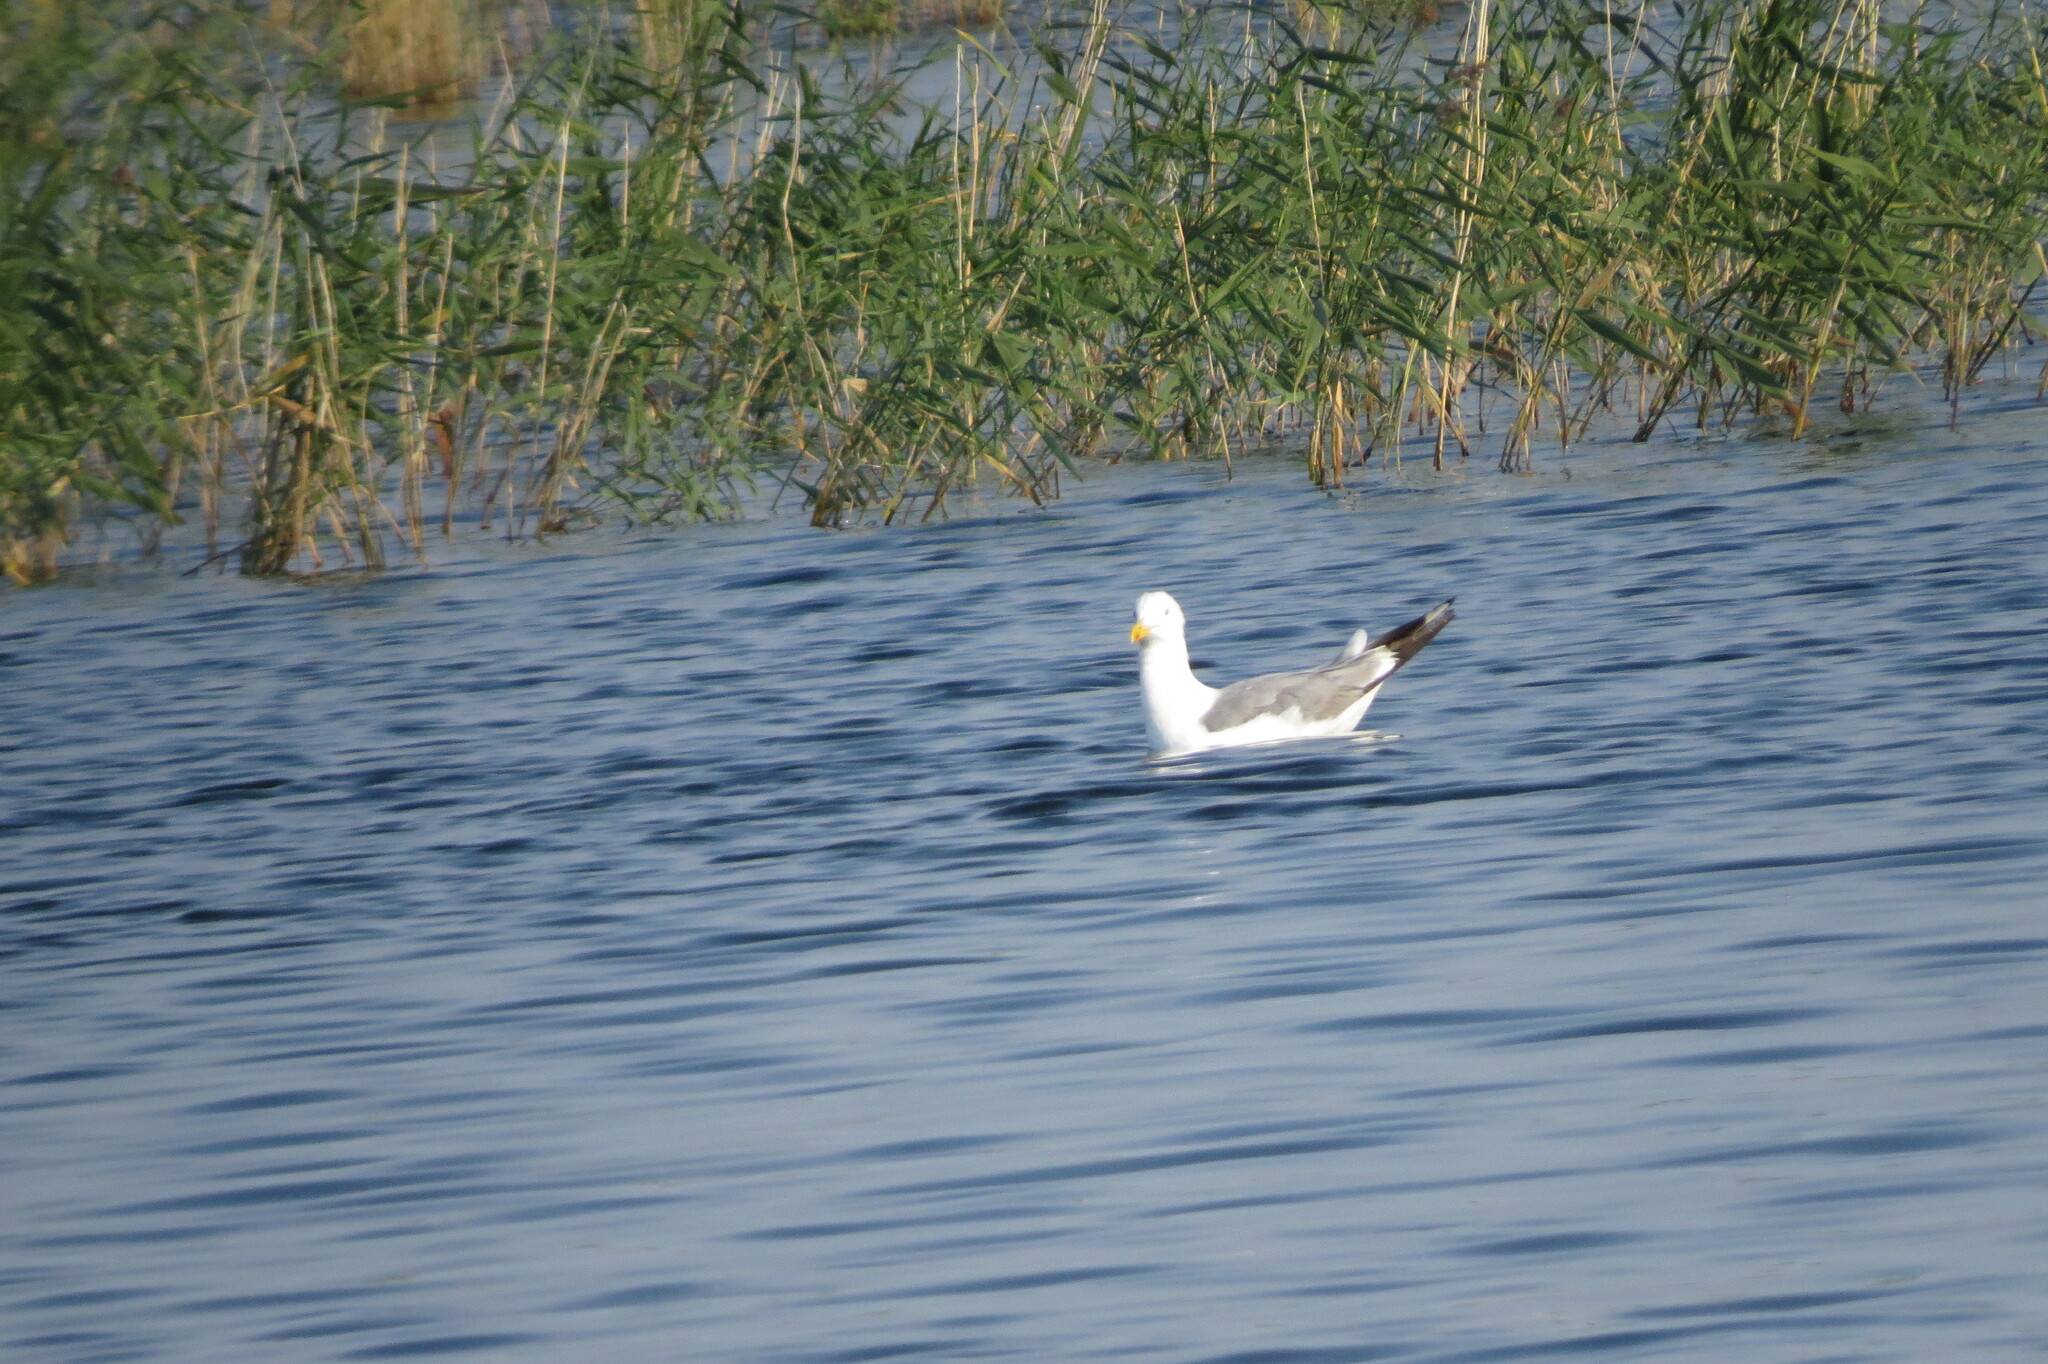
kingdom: Animalia
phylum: Chordata
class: Aves
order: Charadriiformes
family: Laridae
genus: Larus
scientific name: Larus fuscus
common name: Lesser black-backed gull
